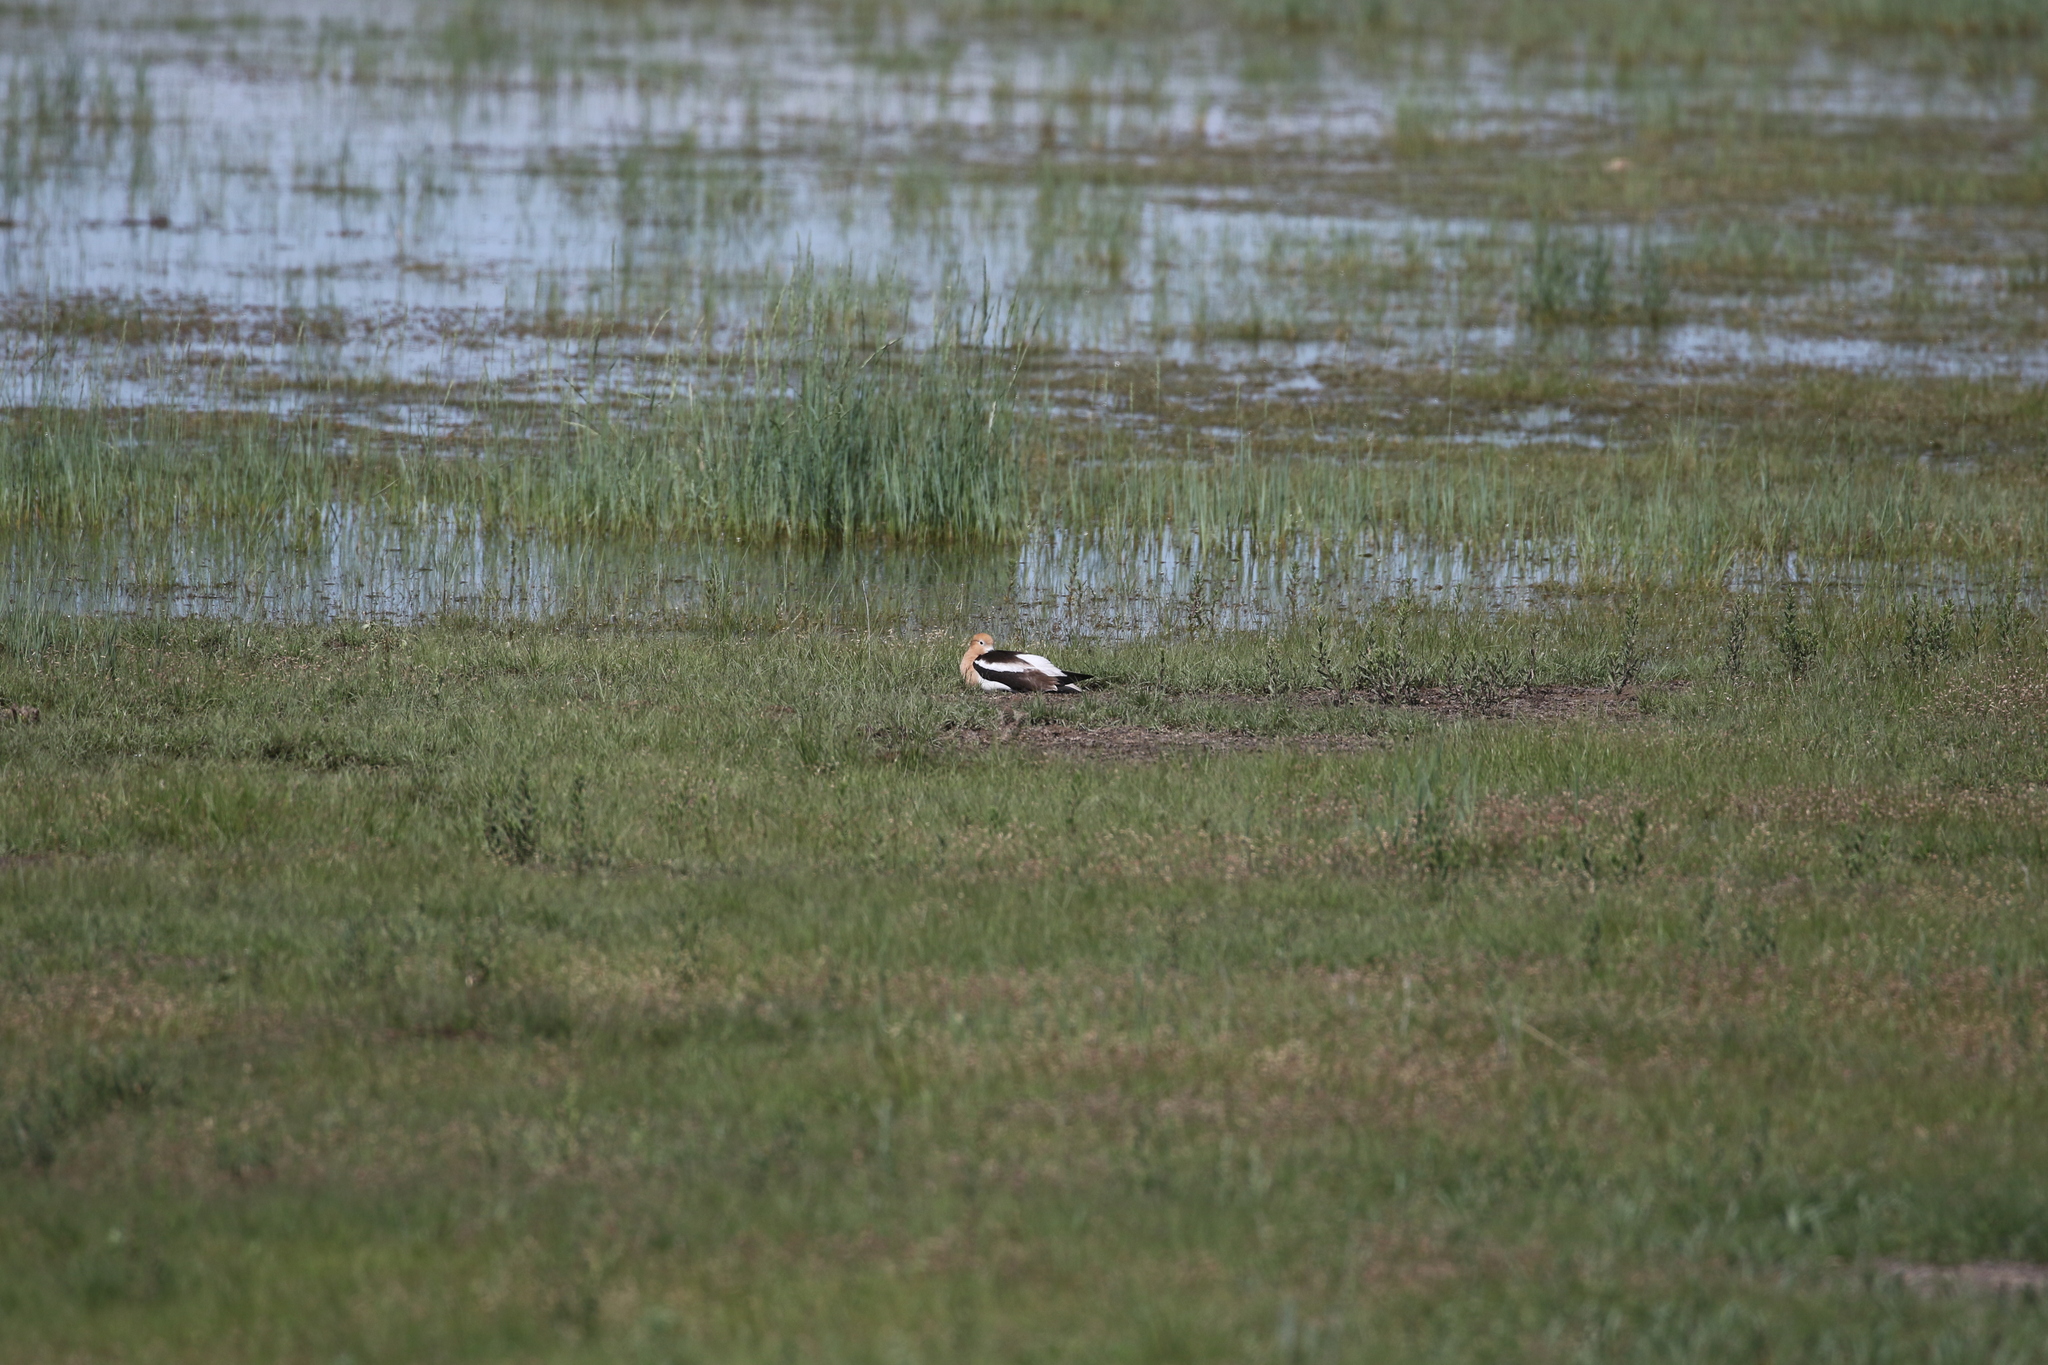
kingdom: Animalia
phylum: Chordata
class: Aves
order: Charadriiformes
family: Recurvirostridae
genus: Recurvirostra
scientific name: Recurvirostra americana
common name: American avocet
